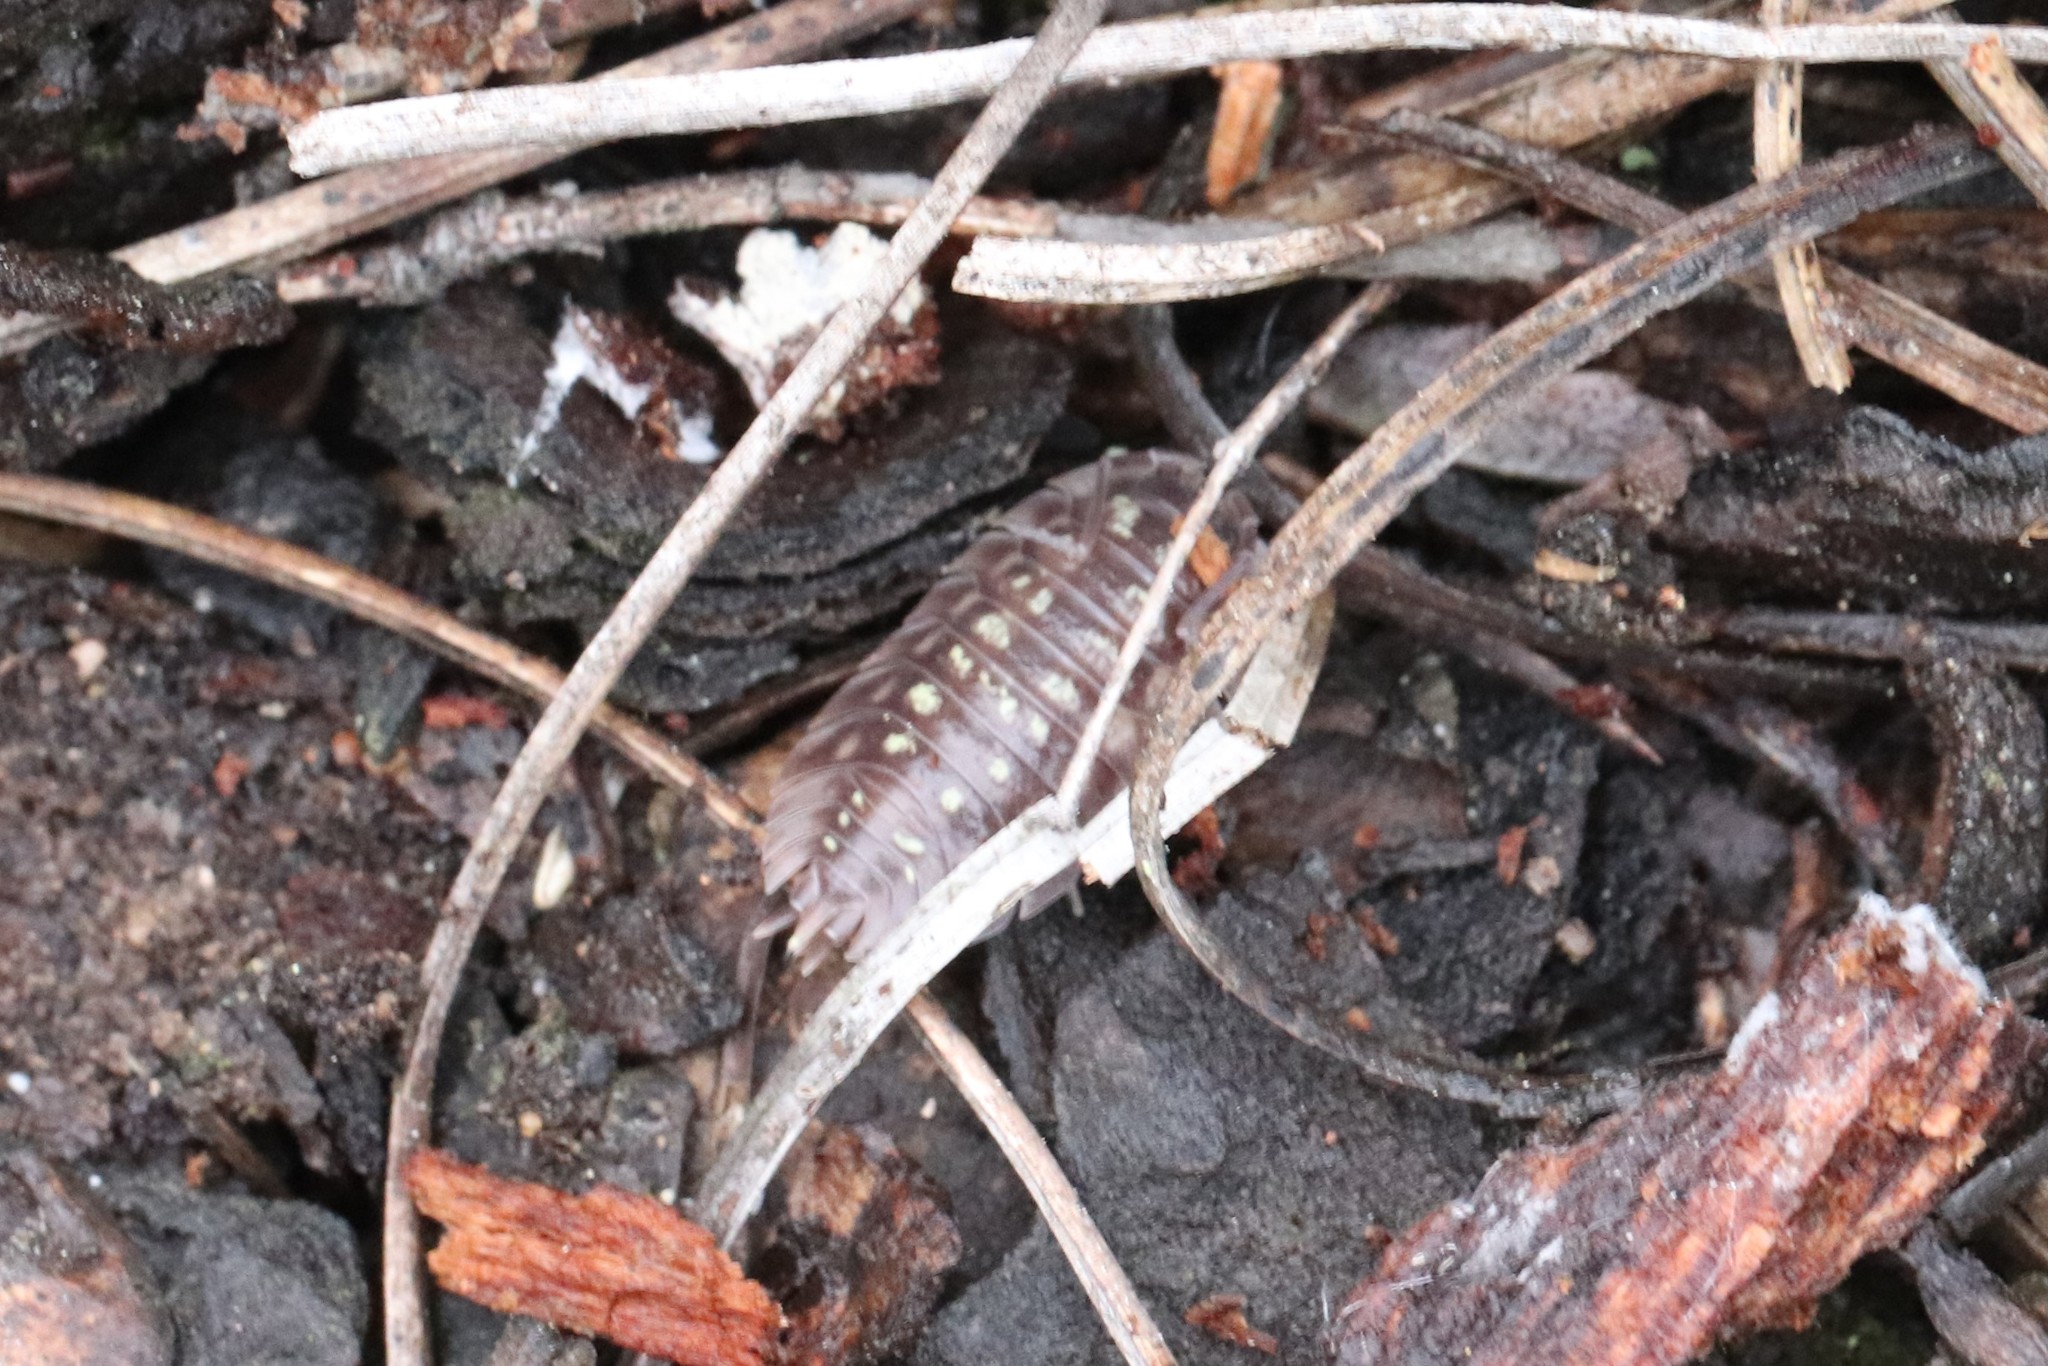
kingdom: Animalia
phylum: Arthropoda
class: Malacostraca
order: Isopoda
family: Oniscidae
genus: Oniscus
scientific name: Oniscus asellus
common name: Common shiny woodlouse
